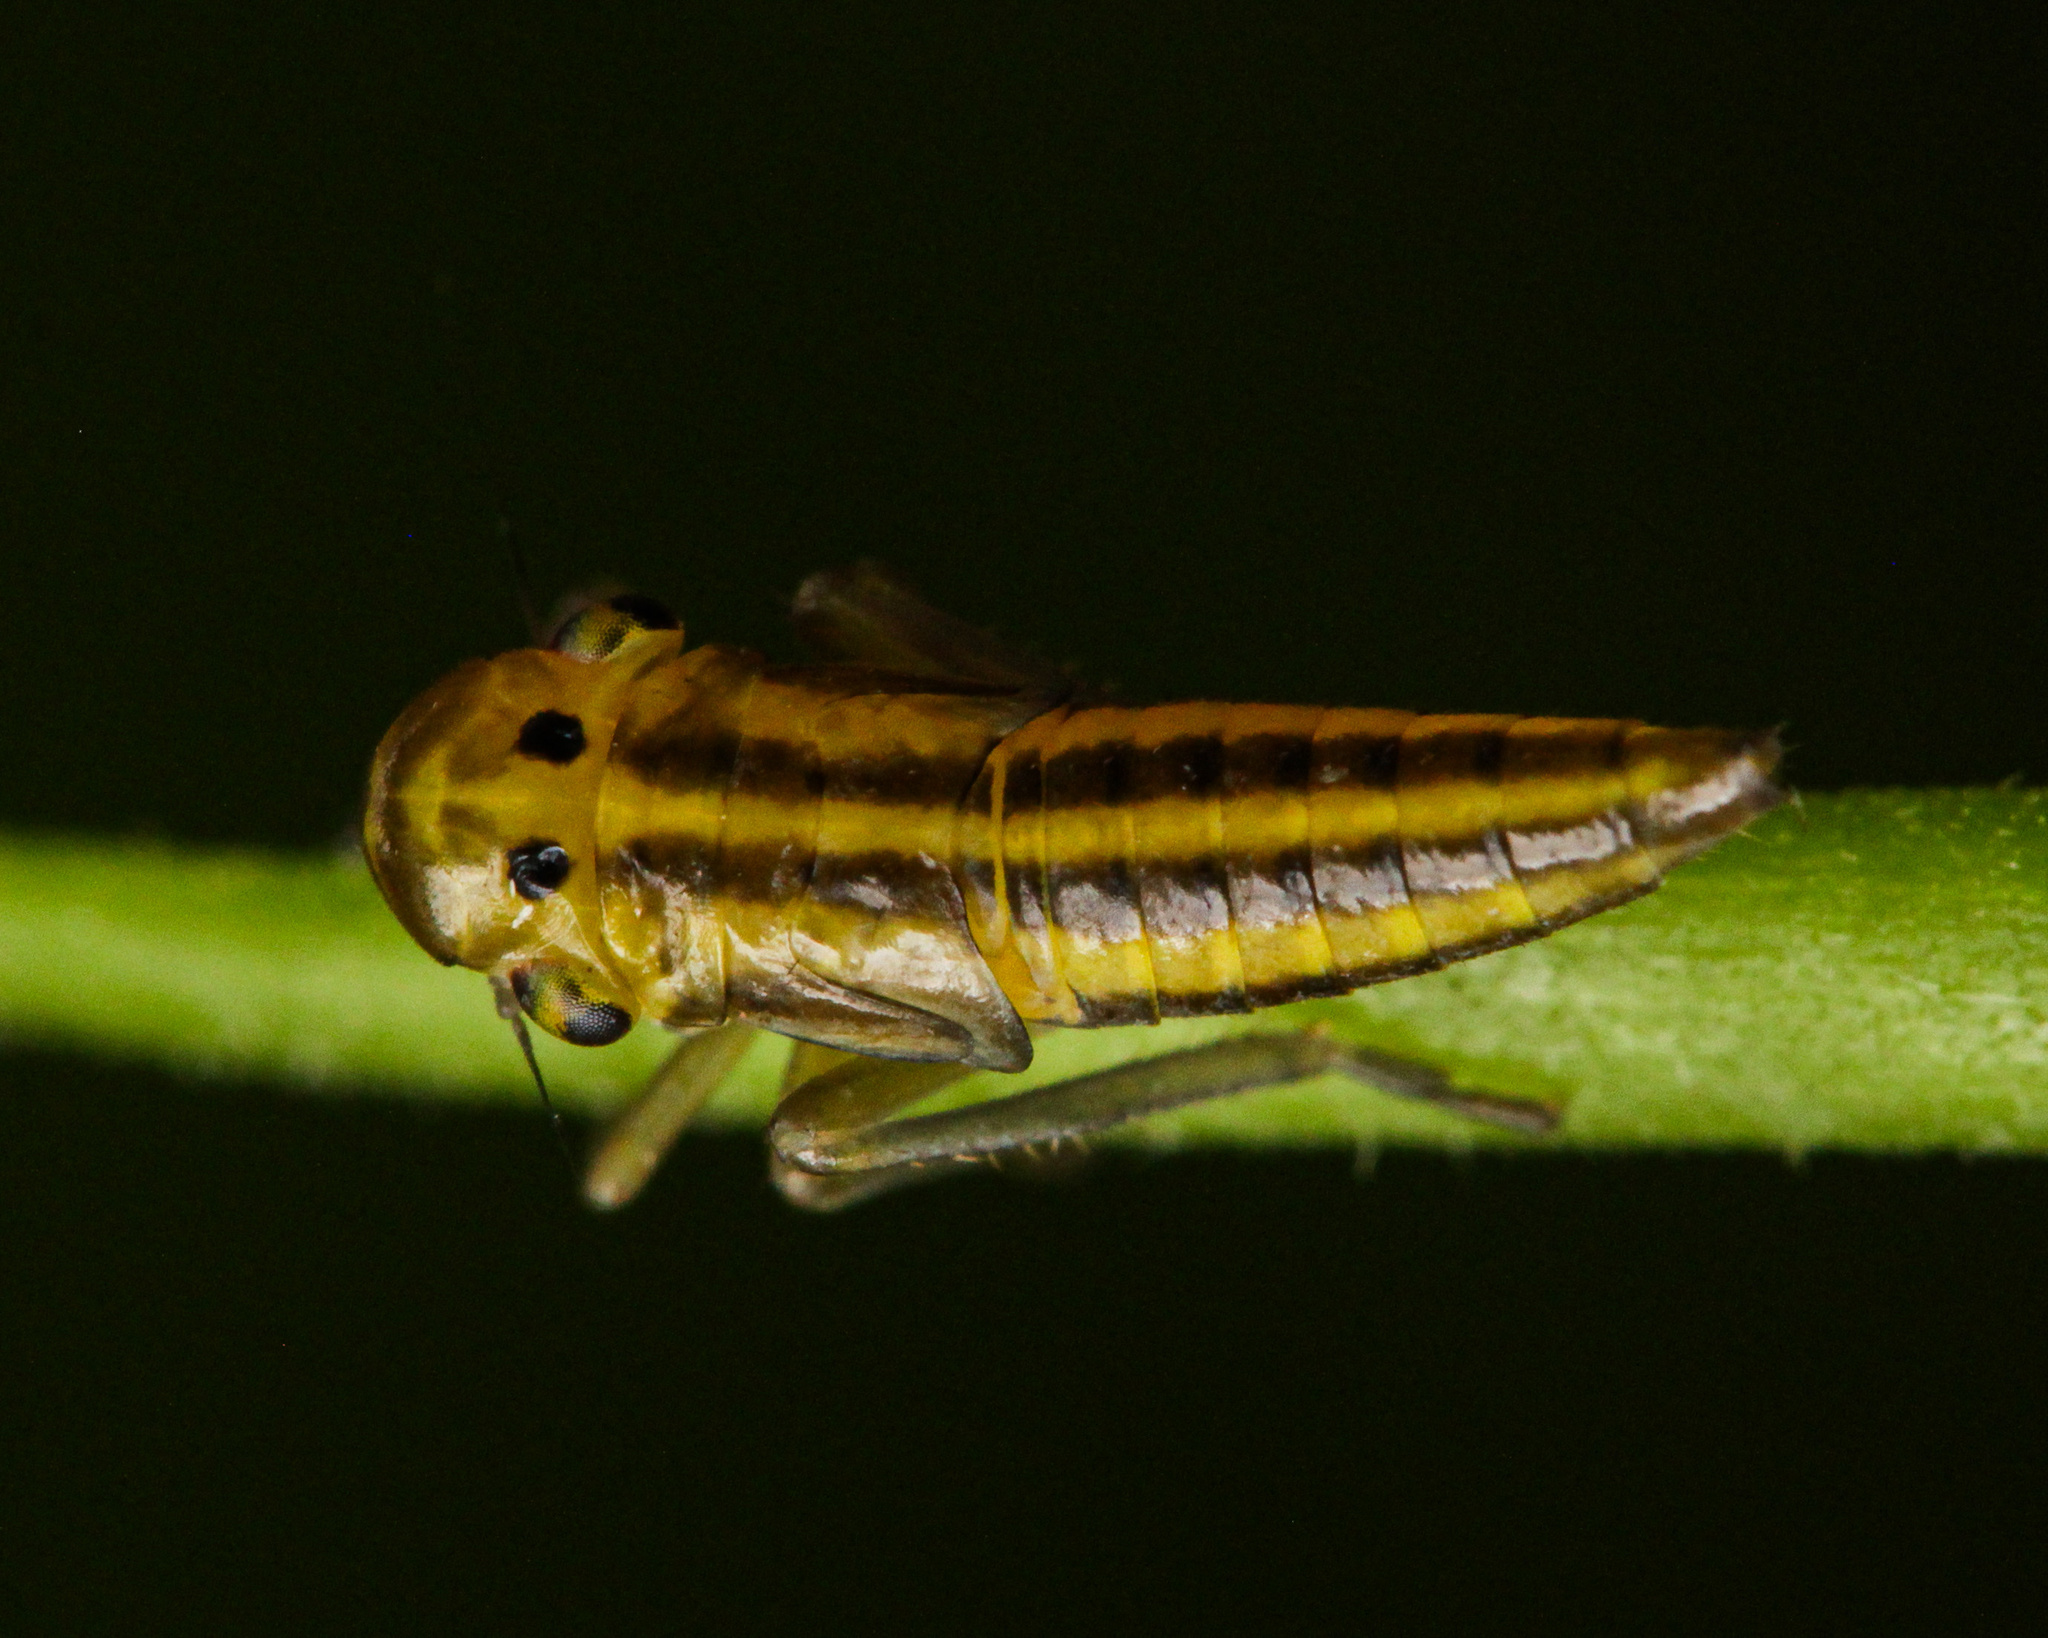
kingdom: Animalia
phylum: Arthropoda
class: Insecta
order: Hemiptera
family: Cicadellidae
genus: Cicadella
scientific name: Cicadella viridis
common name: Leafhopper
